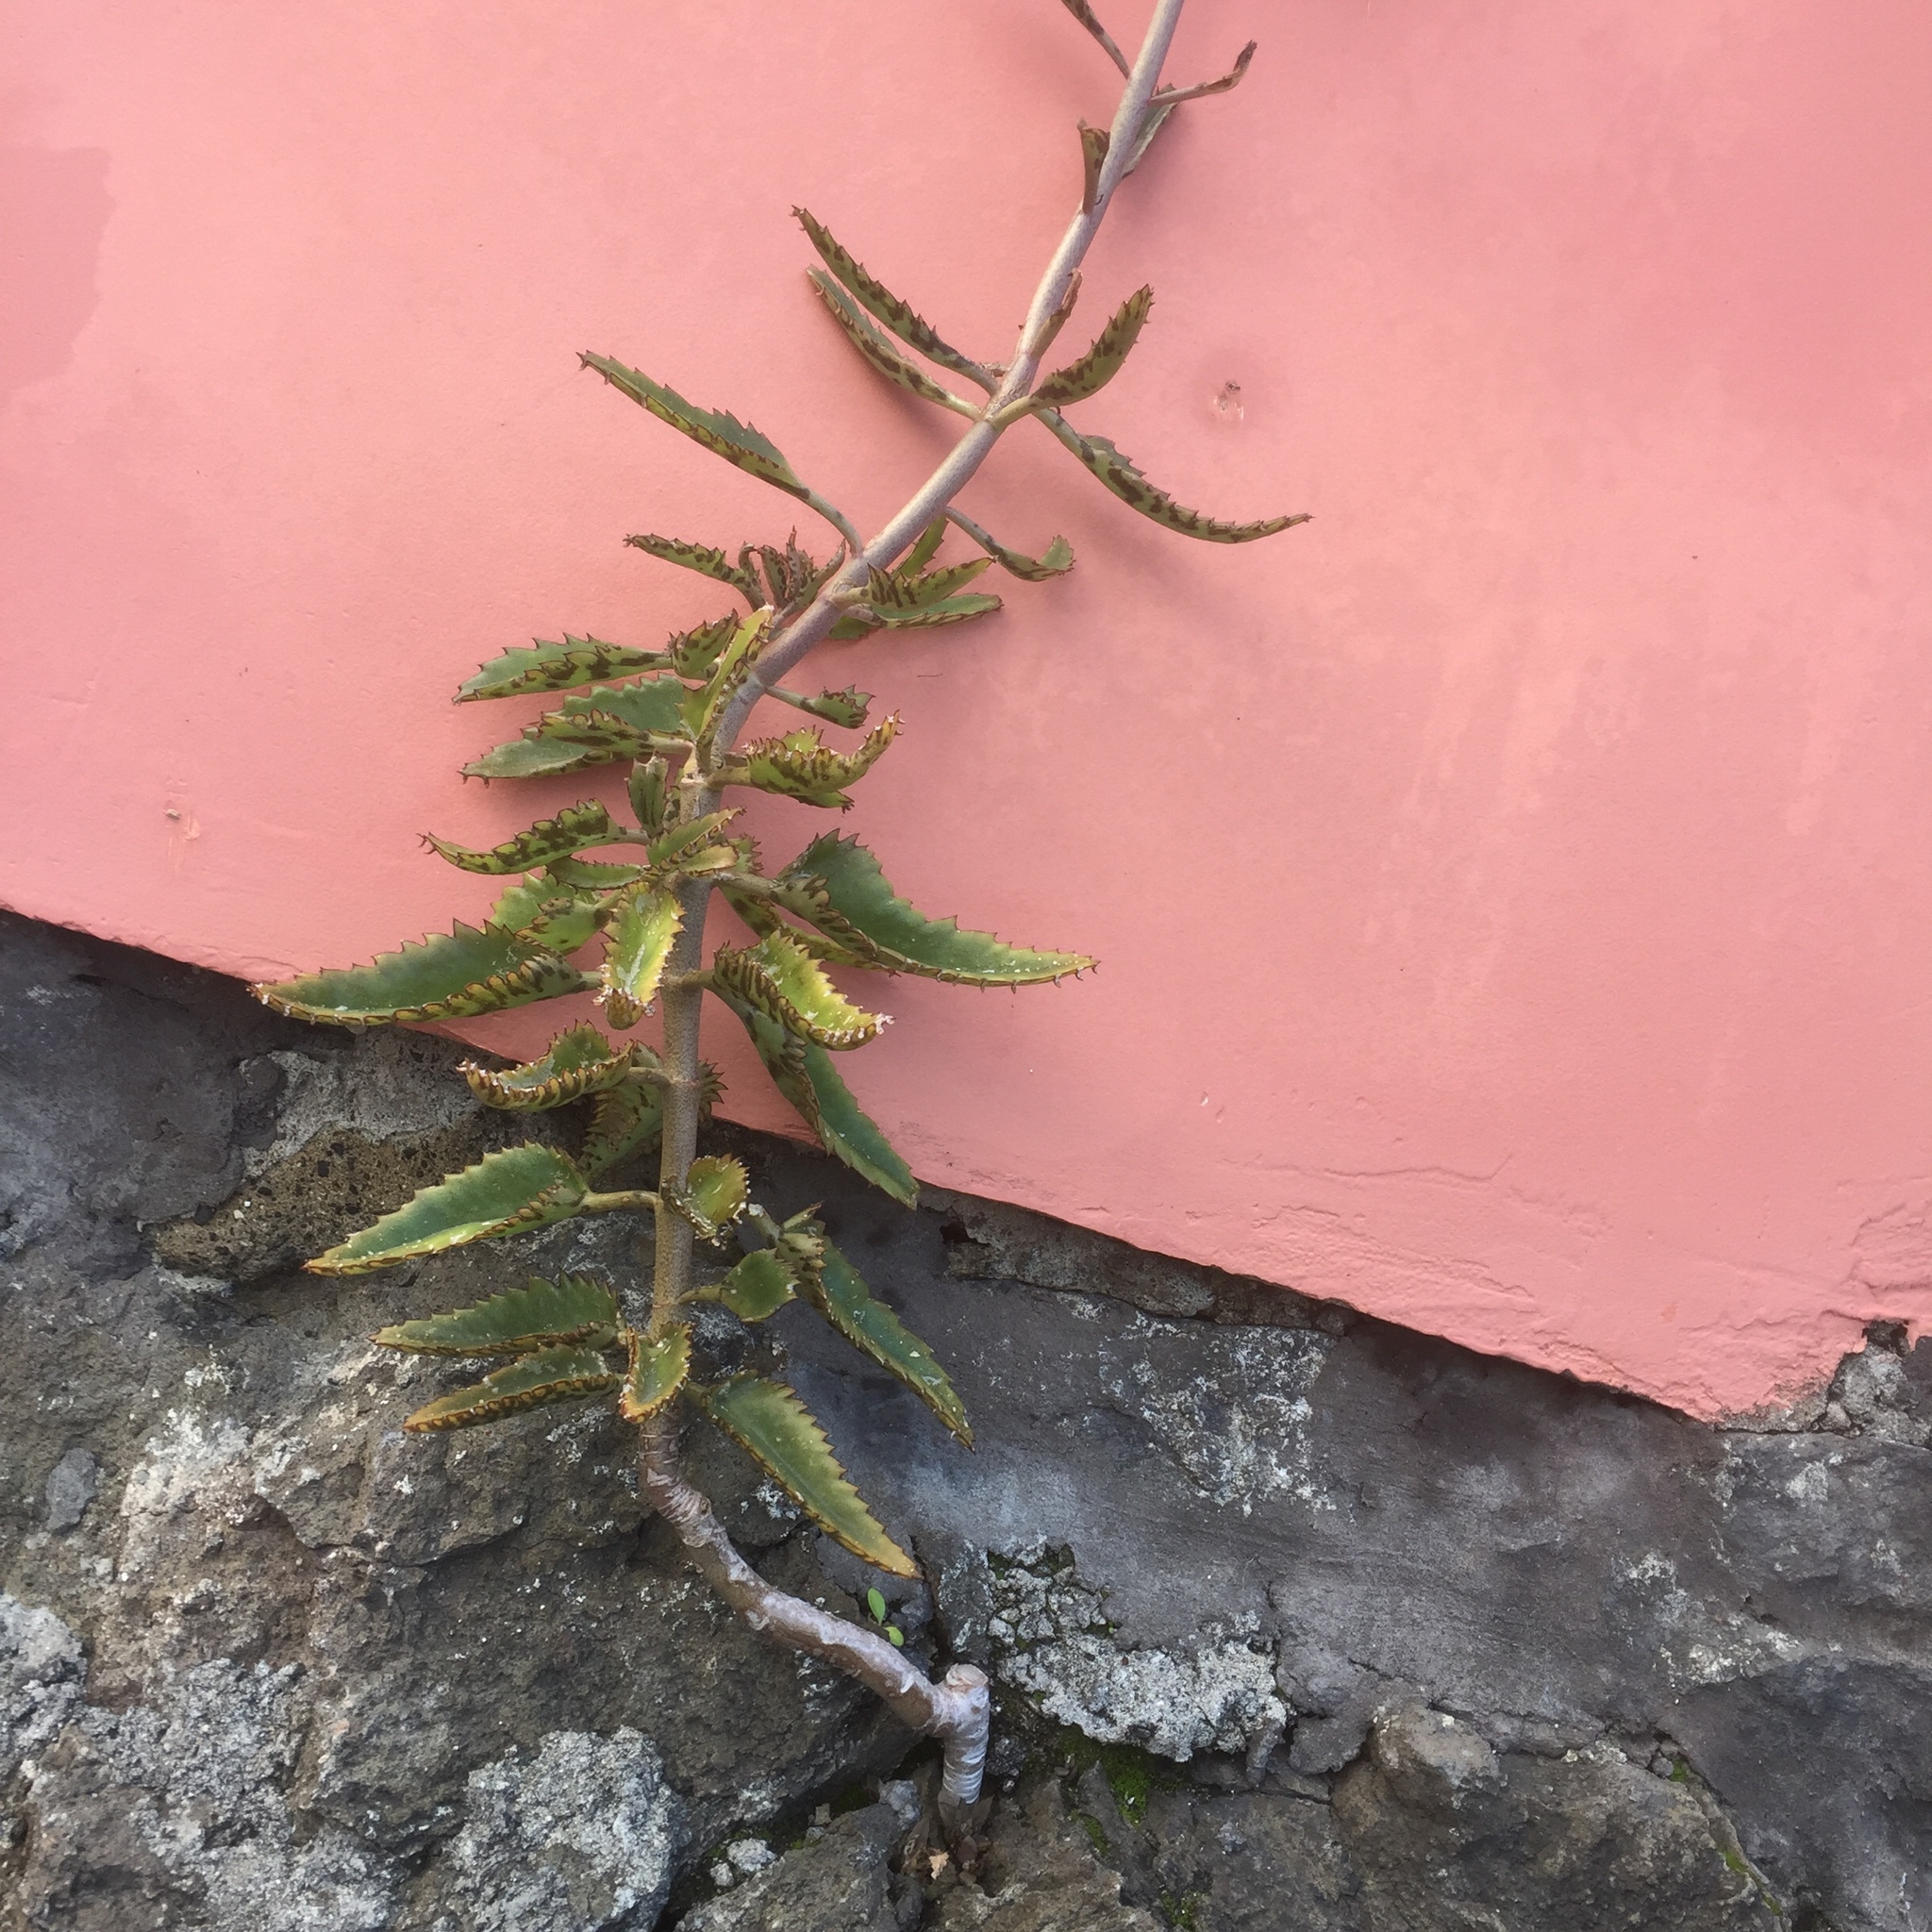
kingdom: Plantae
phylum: Tracheophyta
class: Magnoliopsida
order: Saxifragales
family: Crassulaceae
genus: Kalanchoe
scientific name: Kalanchoe houghtonii
